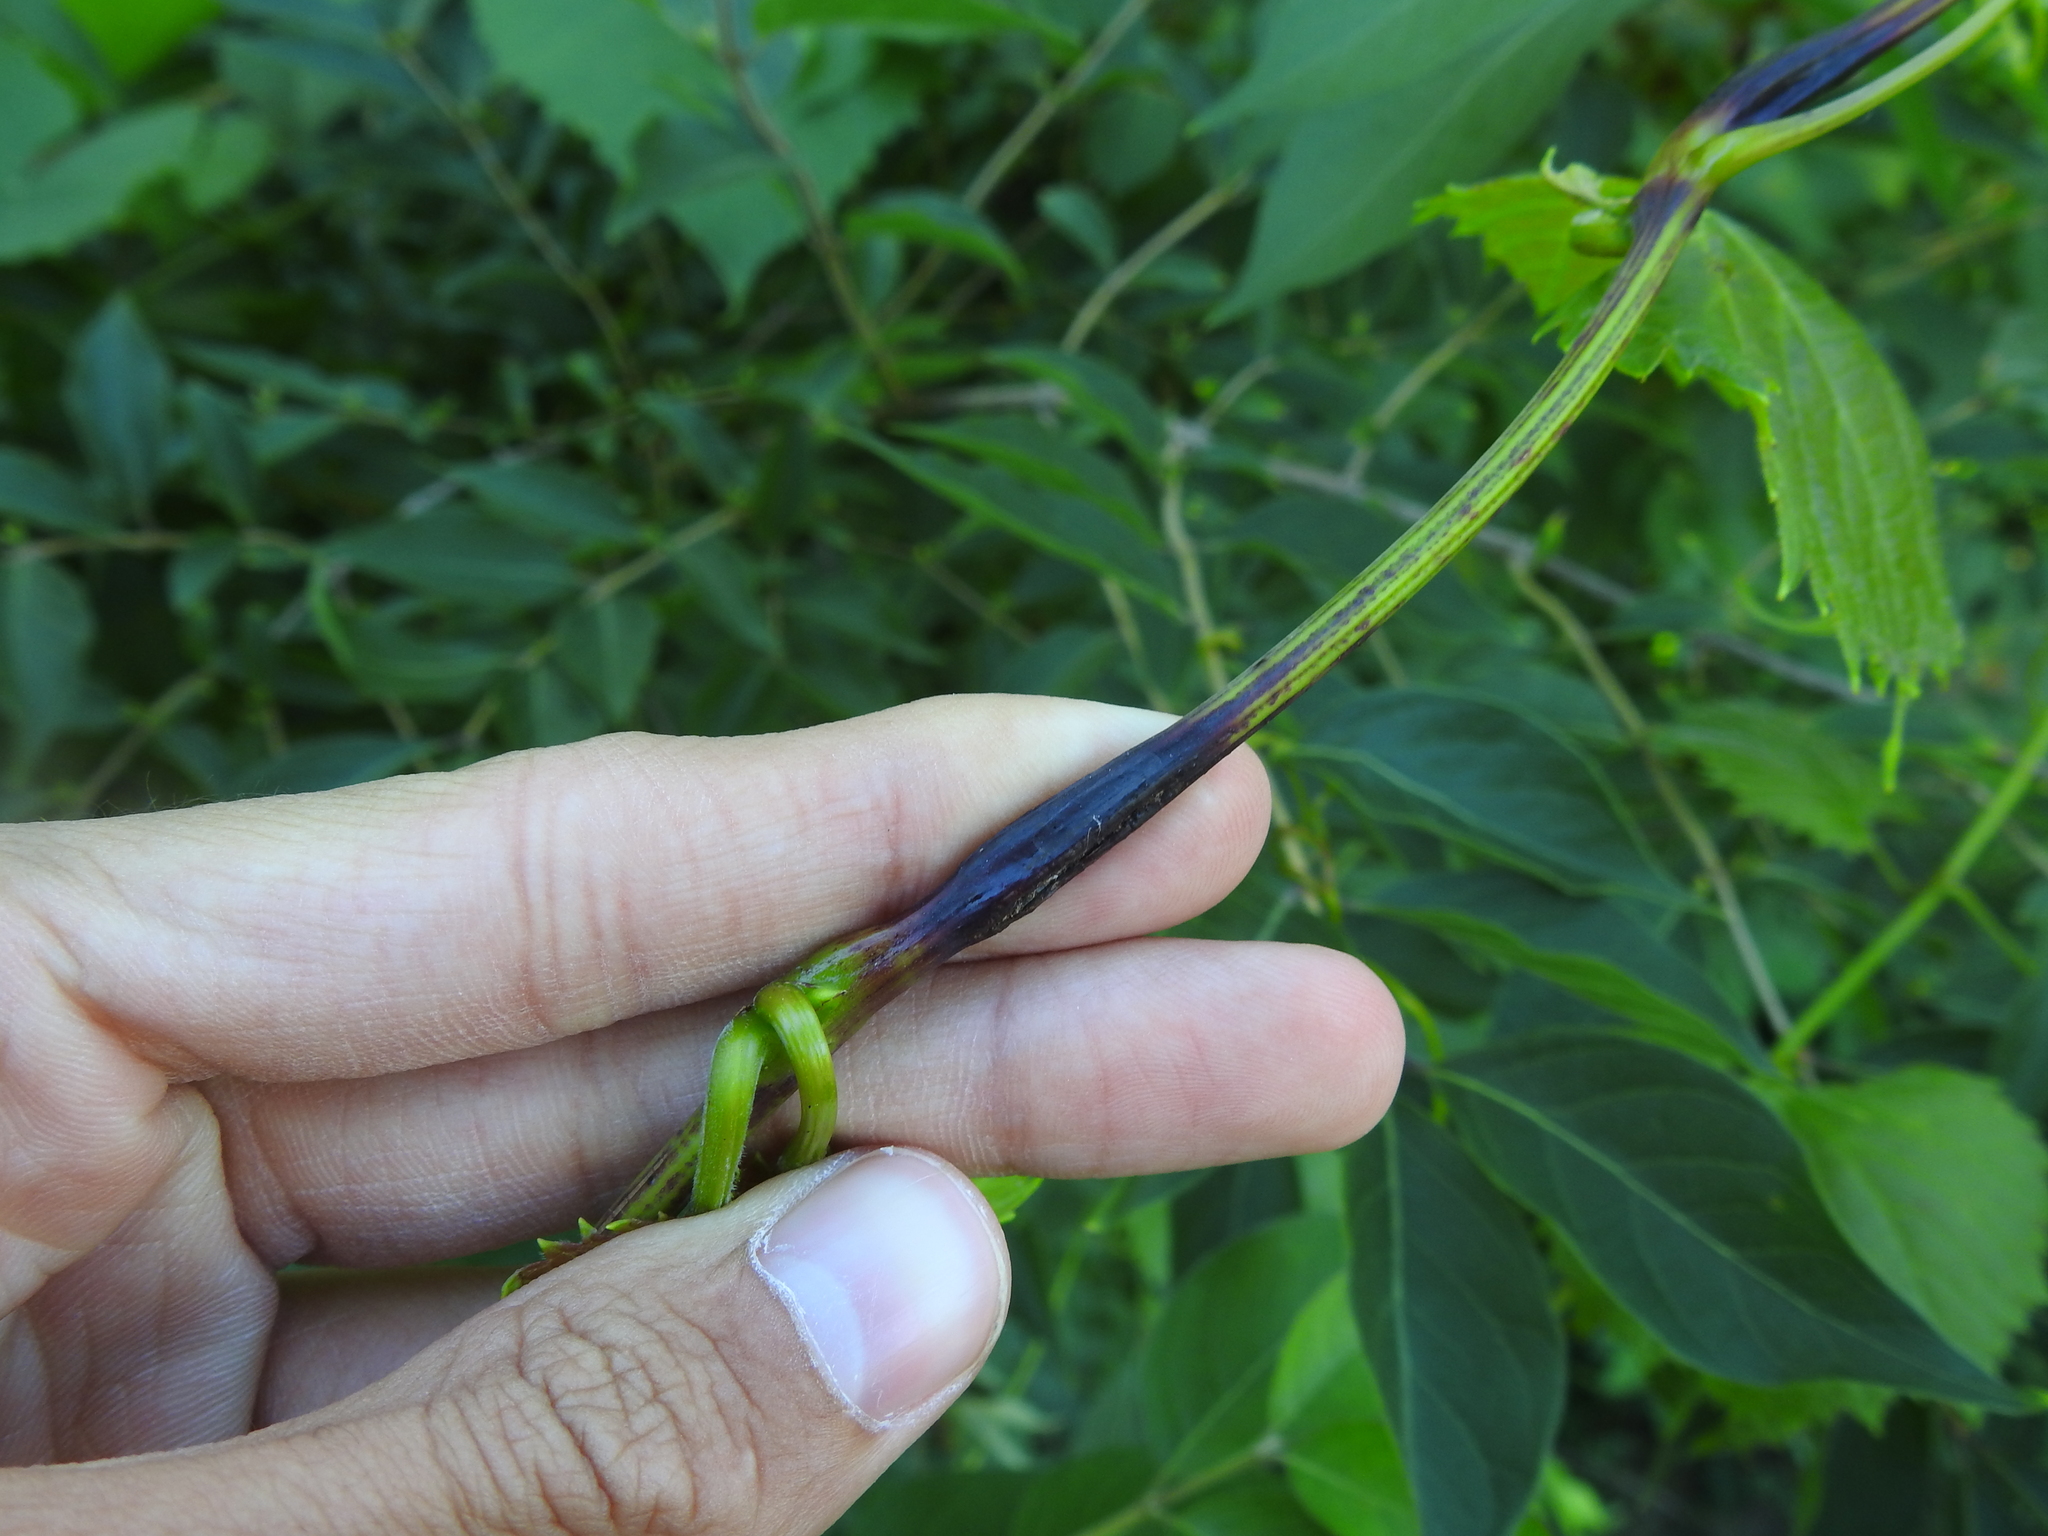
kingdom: Animalia
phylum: Arthropoda
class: Insecta
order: Coleoptera
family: Curculionidae
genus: Ampeloglypter
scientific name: Ampeloglypter sesostris
